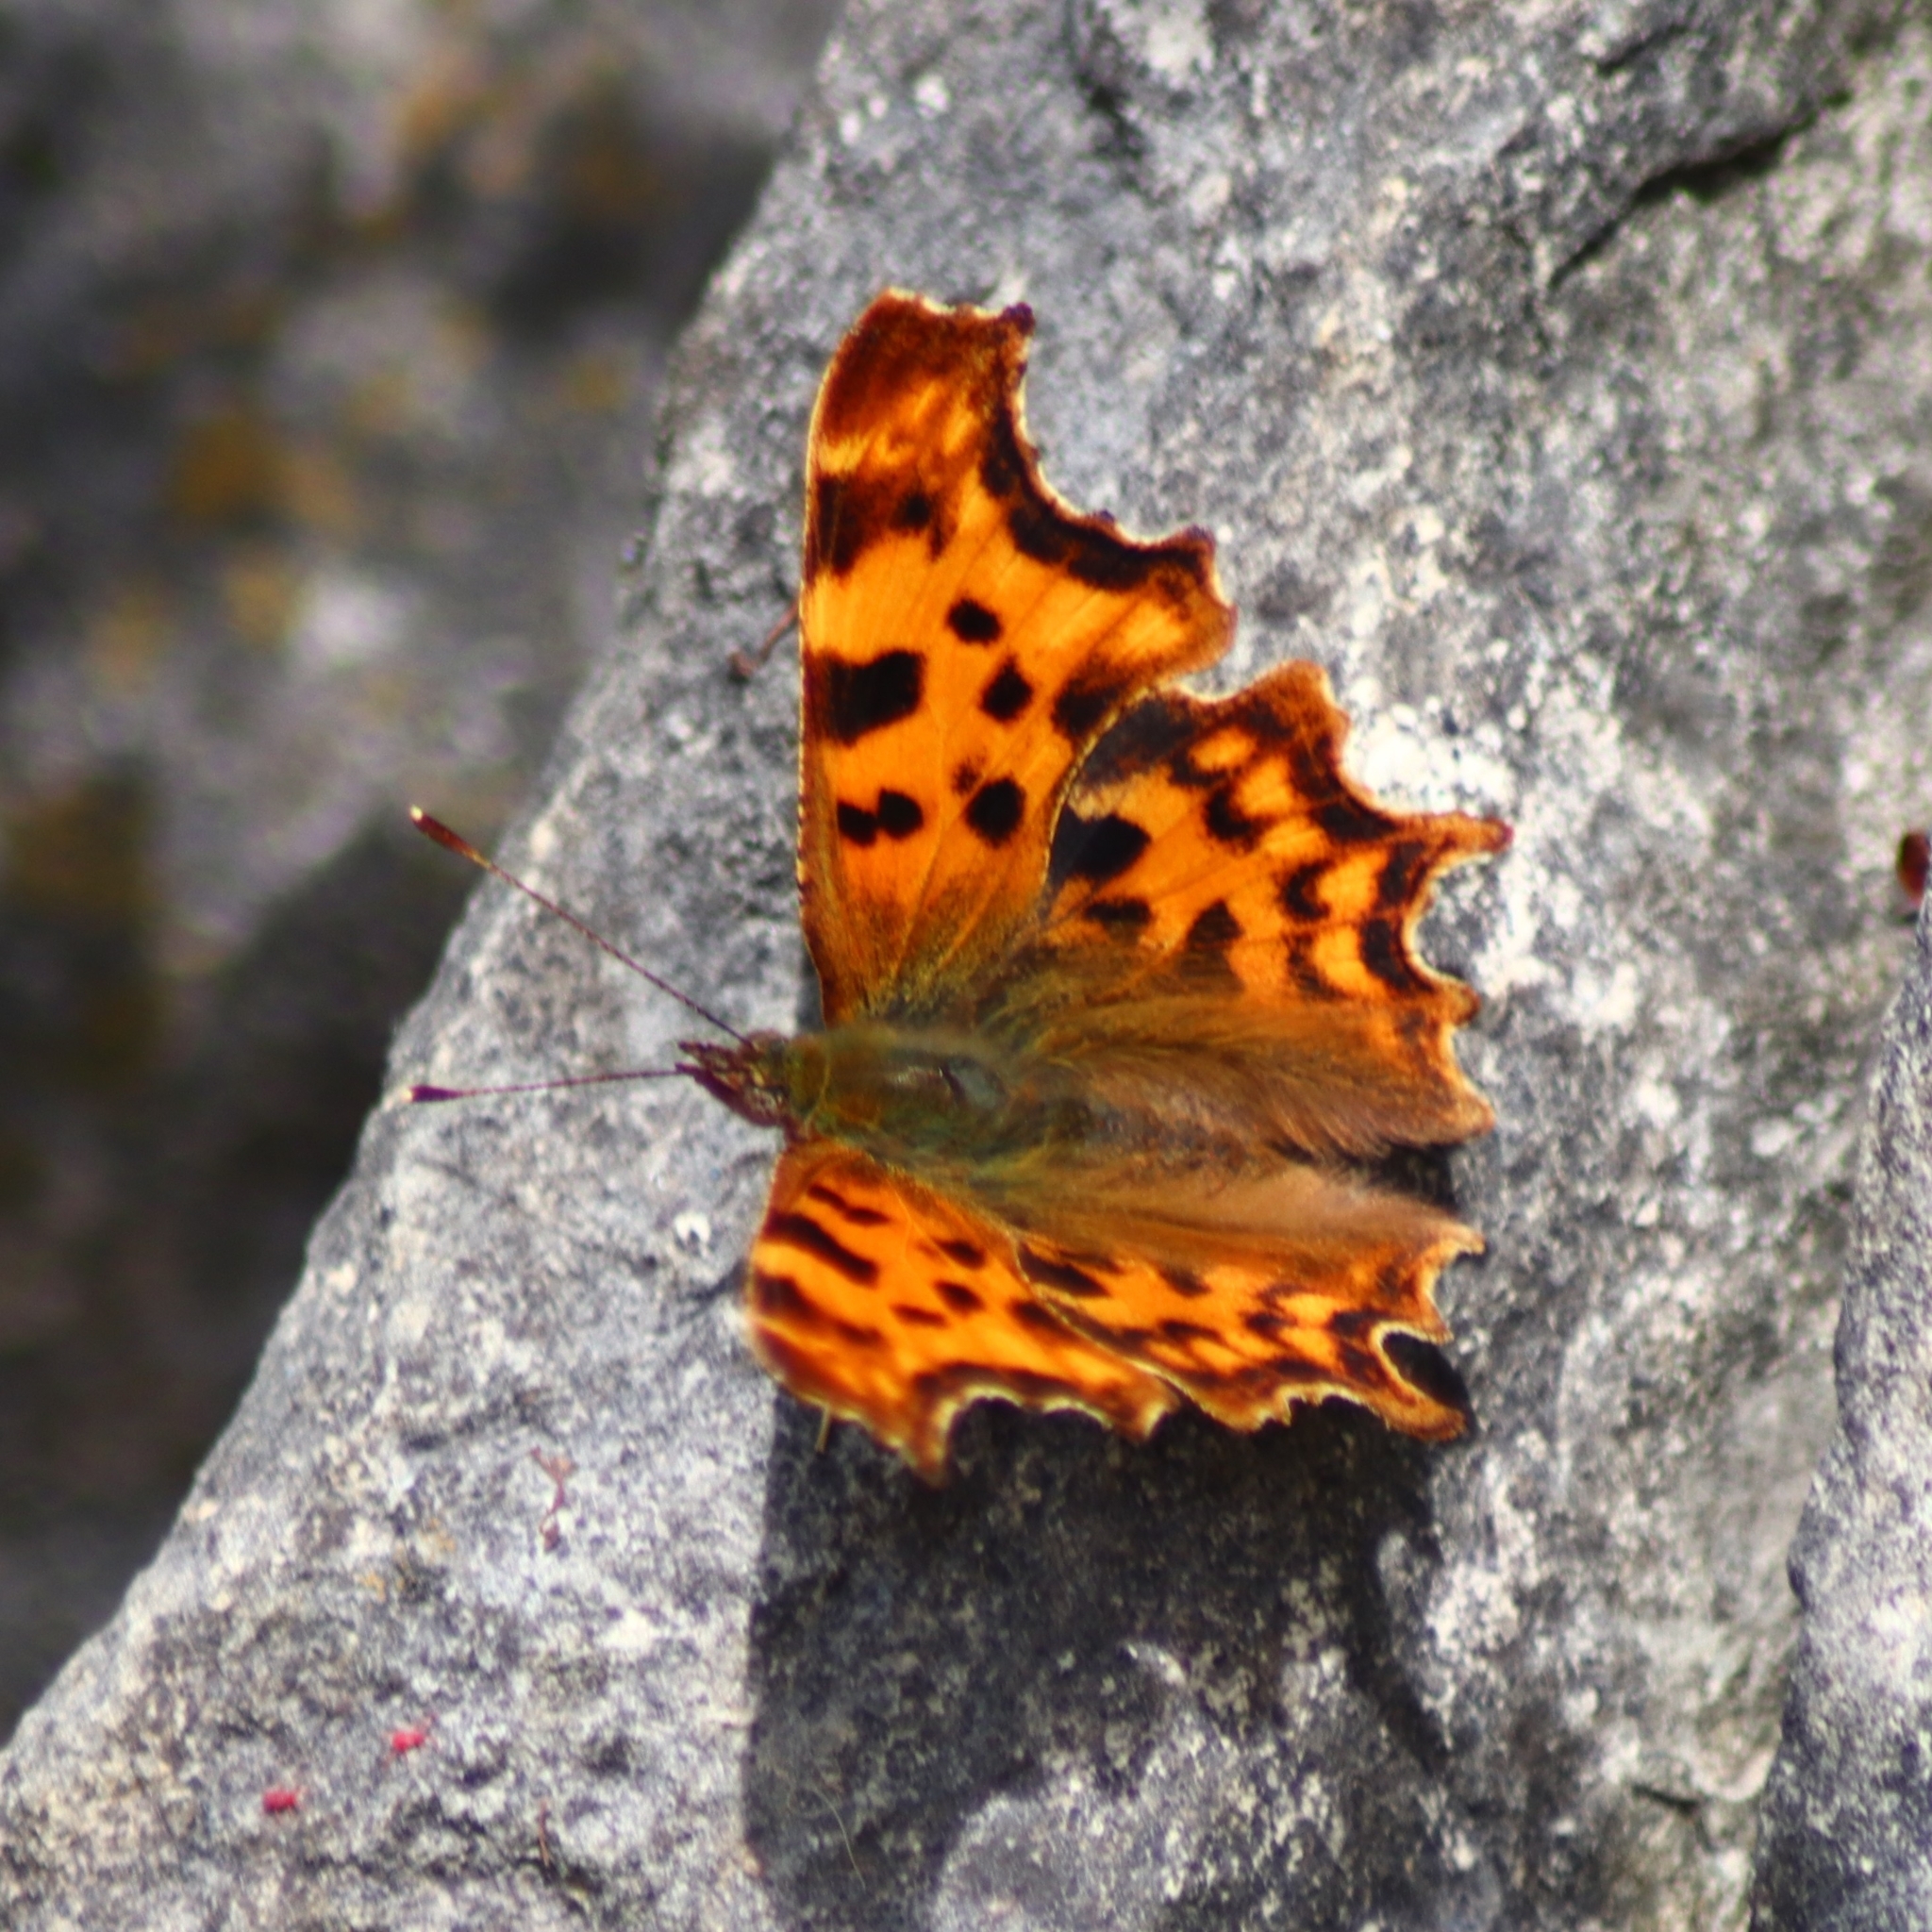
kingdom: Animalia
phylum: Arthropoda
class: Insecta
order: Lepidoptera
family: Nymphalidae
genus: Polygonia
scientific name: Polygonia c-album
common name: Comma
